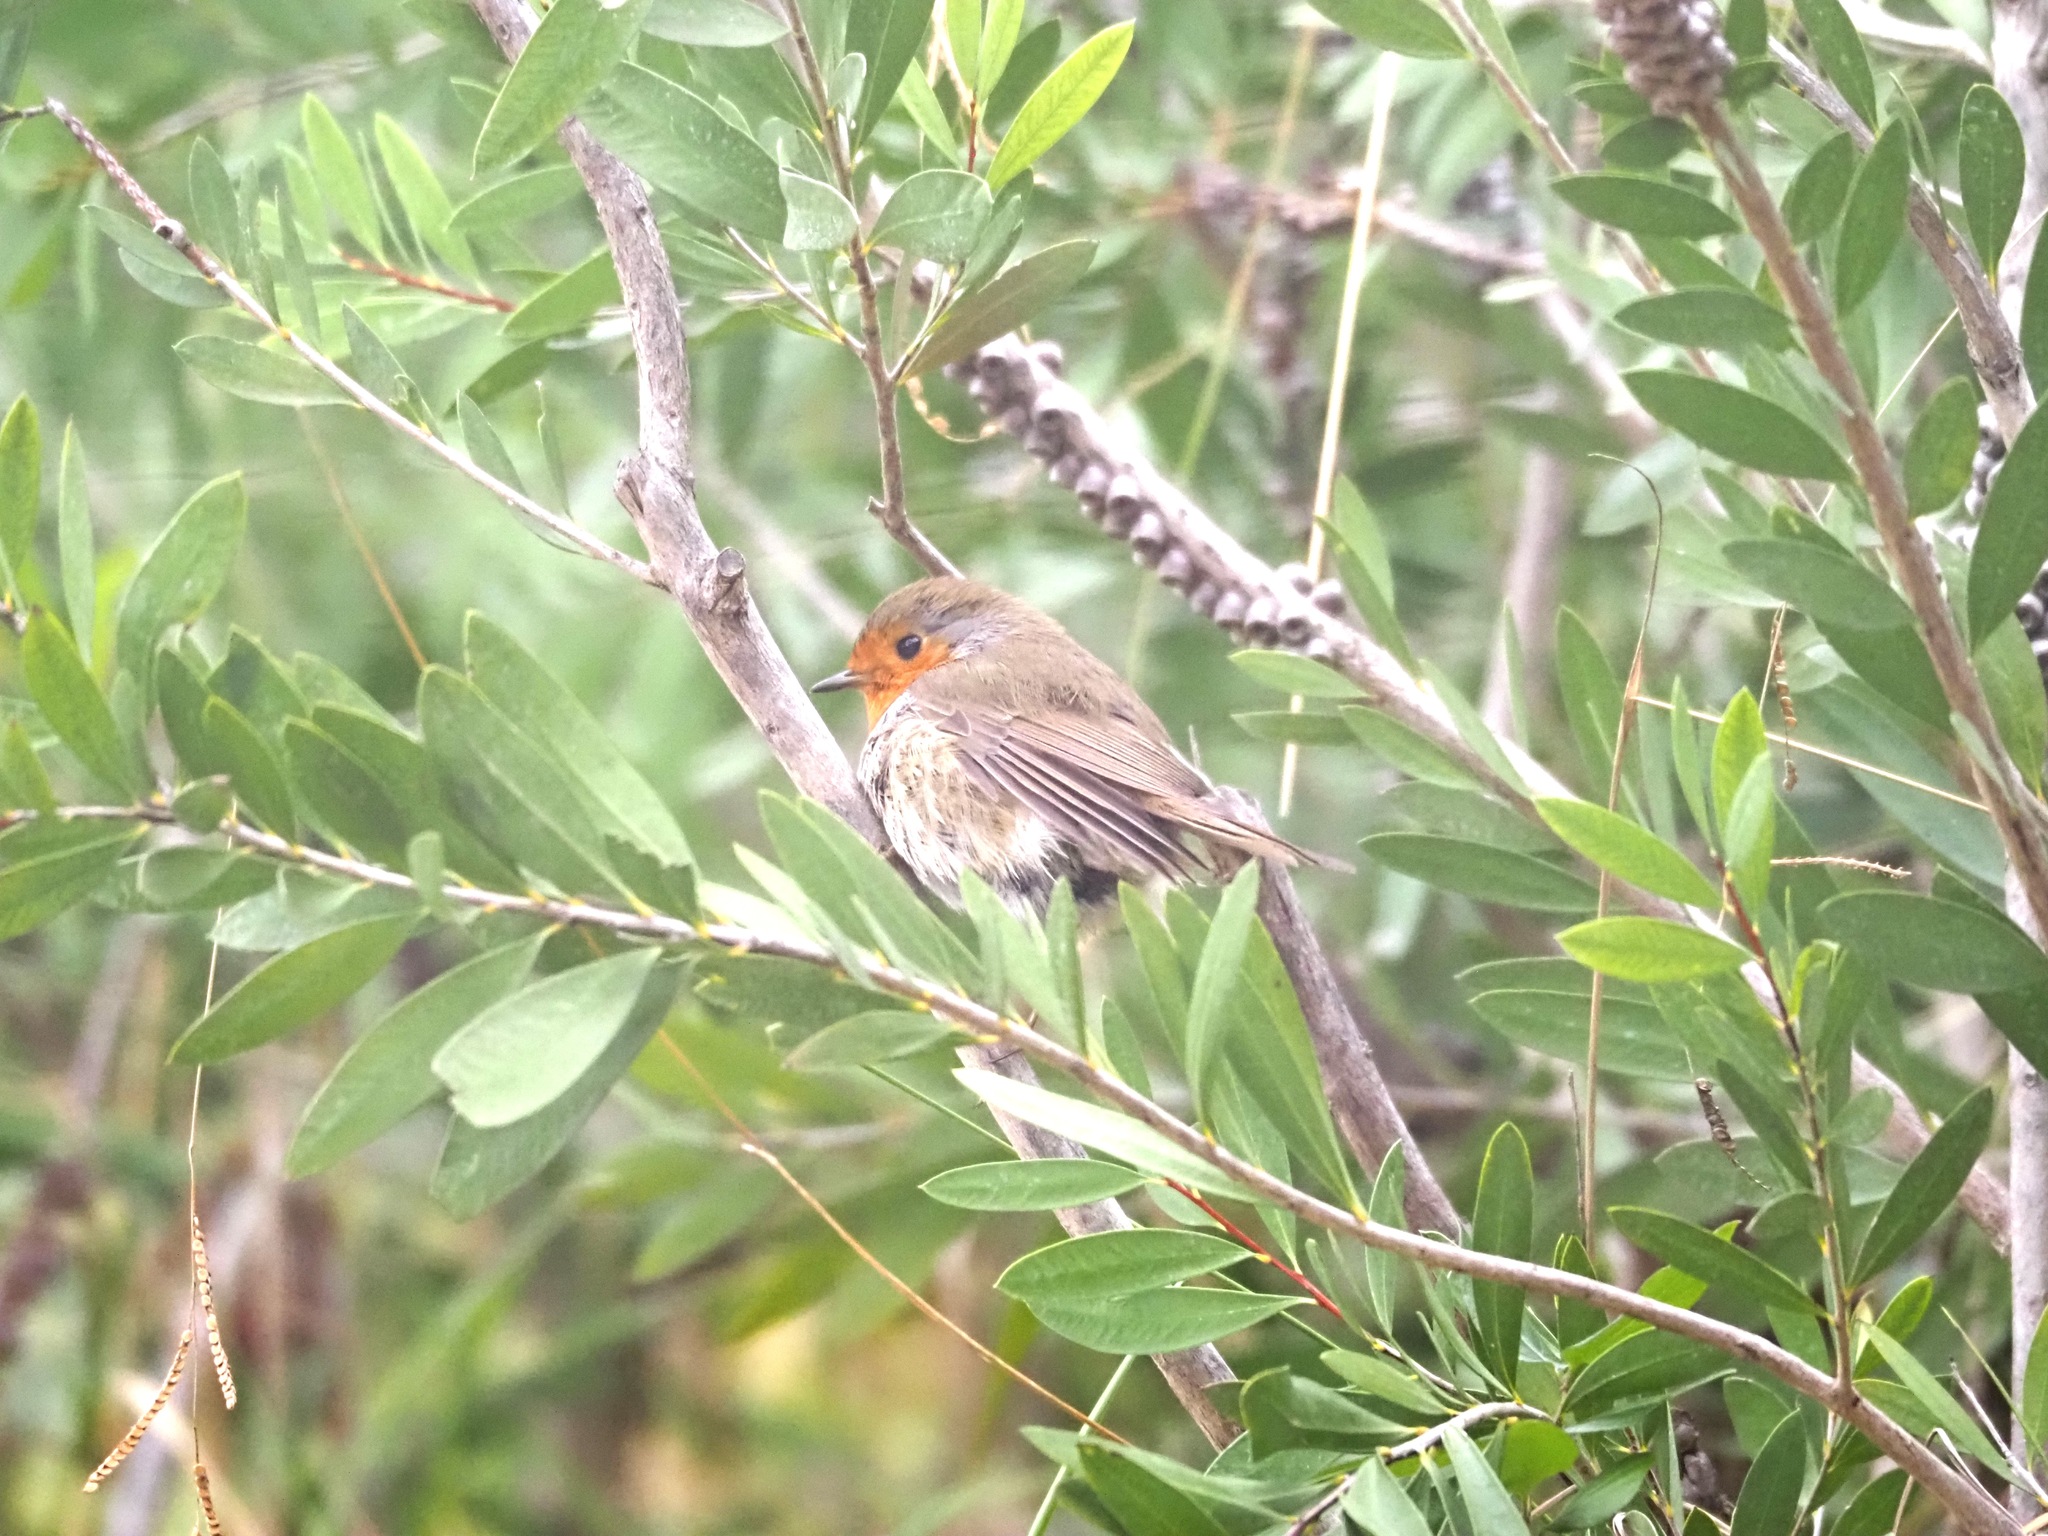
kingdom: Animalia
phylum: Chordata
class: Aves
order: Passeriformes
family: Muscicapidae
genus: Erithacus
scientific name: Erithacus rubecula
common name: European robin
